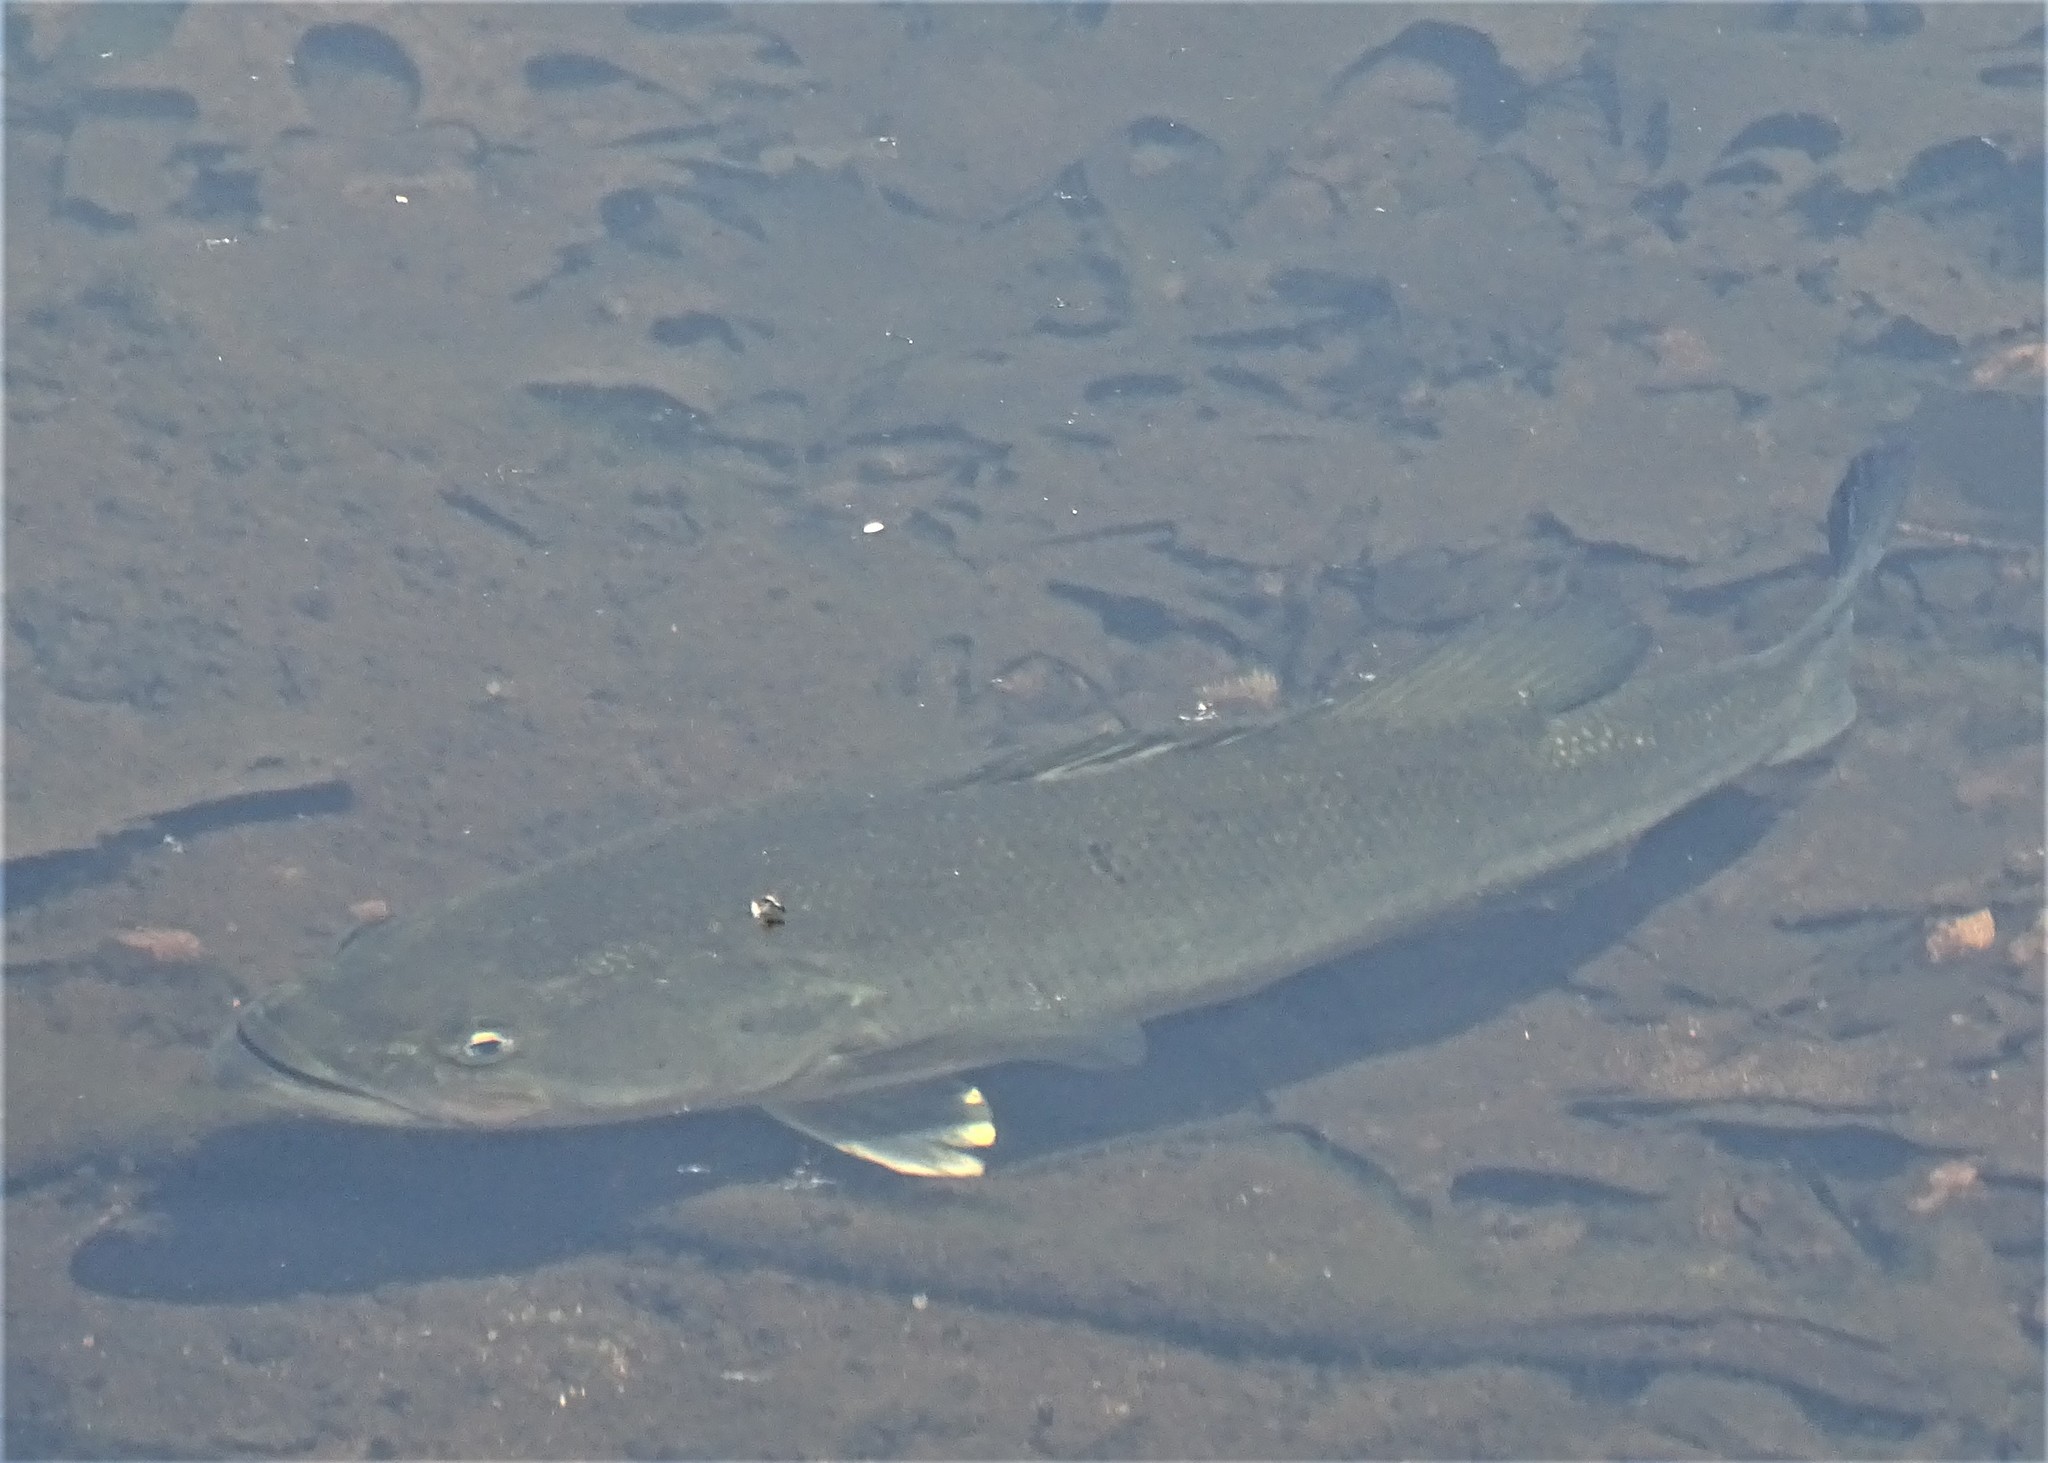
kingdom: Animalia
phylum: Chordata
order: Perciformes
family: Centrarchidae
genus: Micropterus
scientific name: Micropterus
